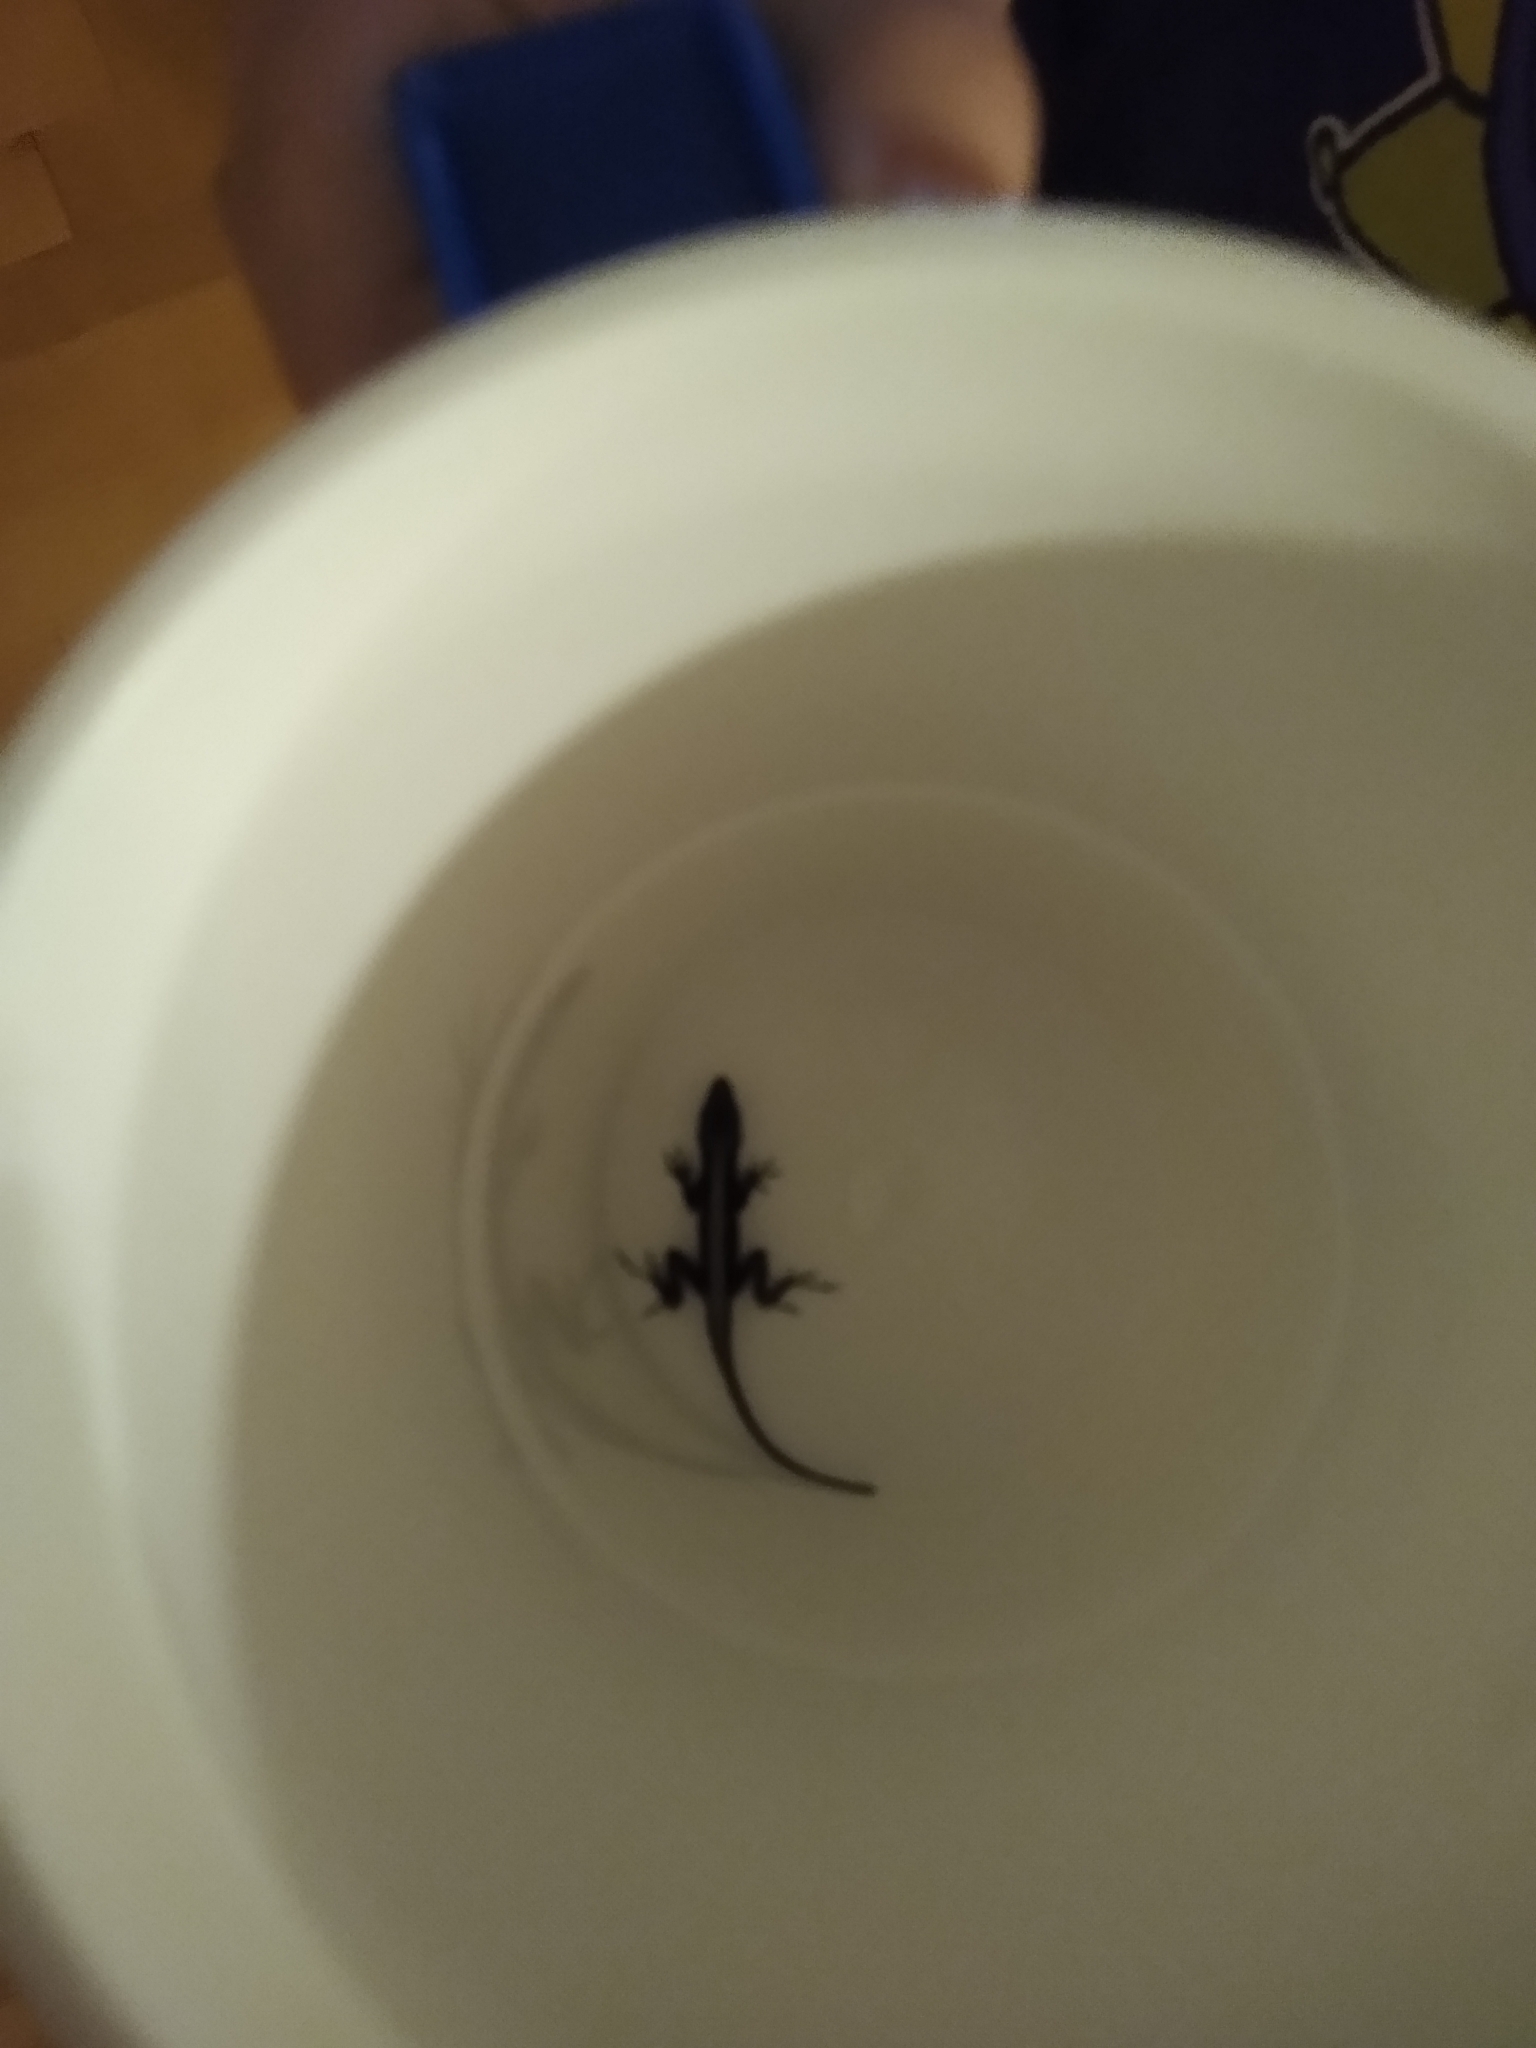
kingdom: Animalia
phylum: Chordata
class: Squamata
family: Dactyloidae
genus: Anolis
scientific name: Anolis sagrei
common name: Brown anole
